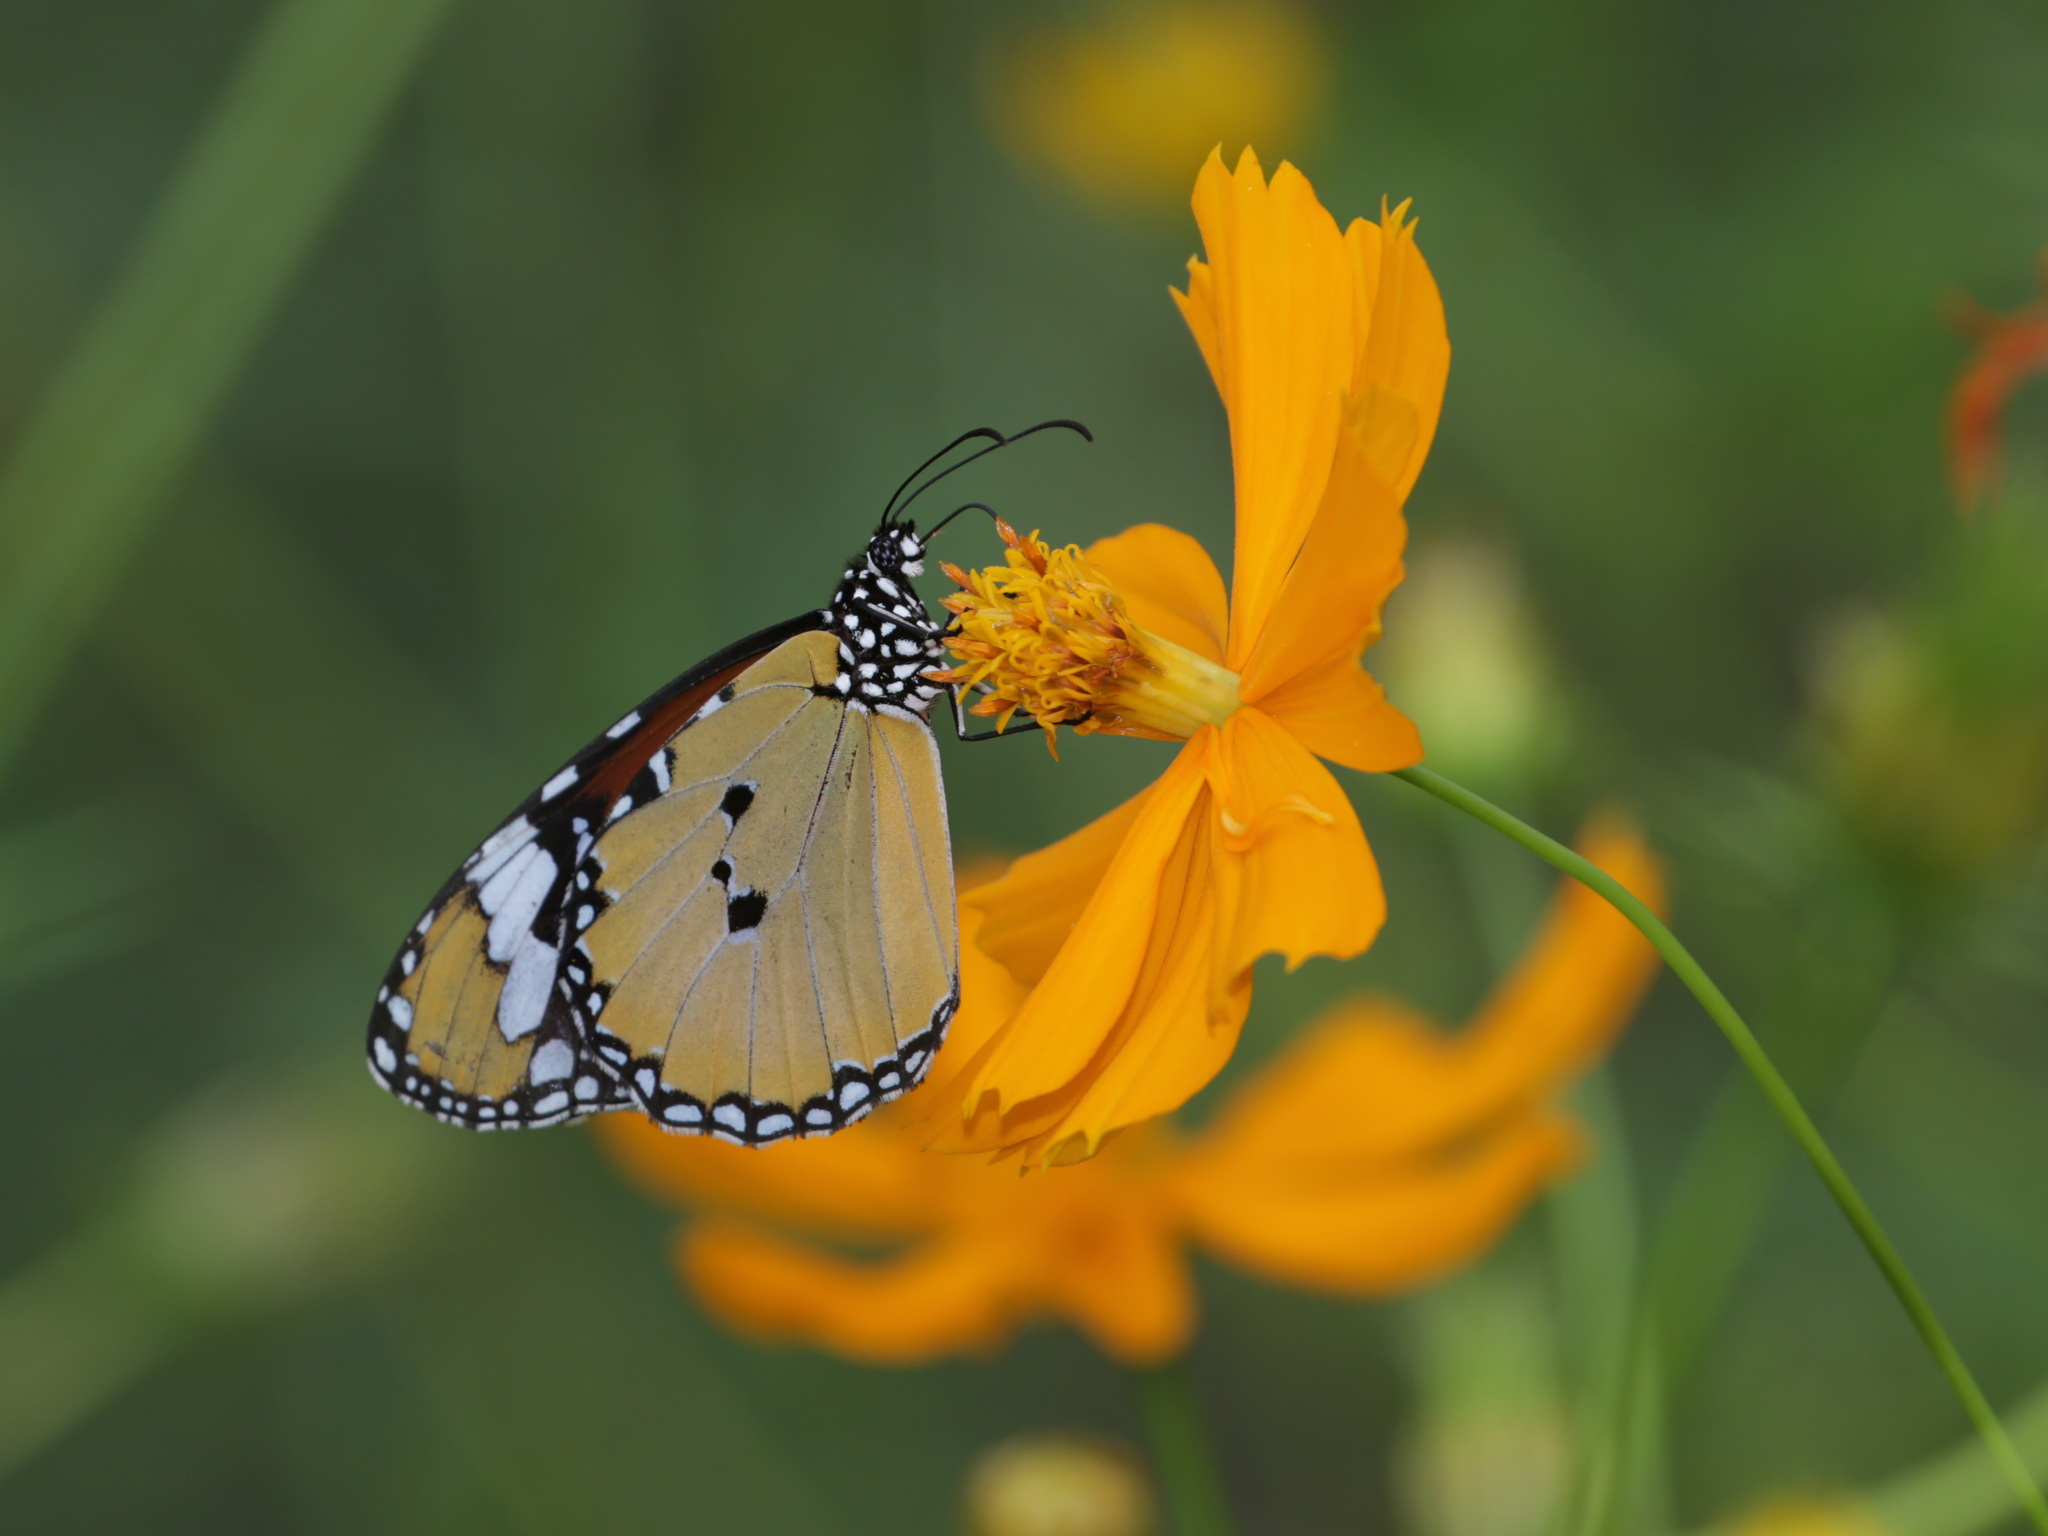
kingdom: Animalia
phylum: Arthropoda
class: Insecta
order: Lepidoptera
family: Nymphalidae
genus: Danaus
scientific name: Danaus chrysippus
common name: Plain tiger
